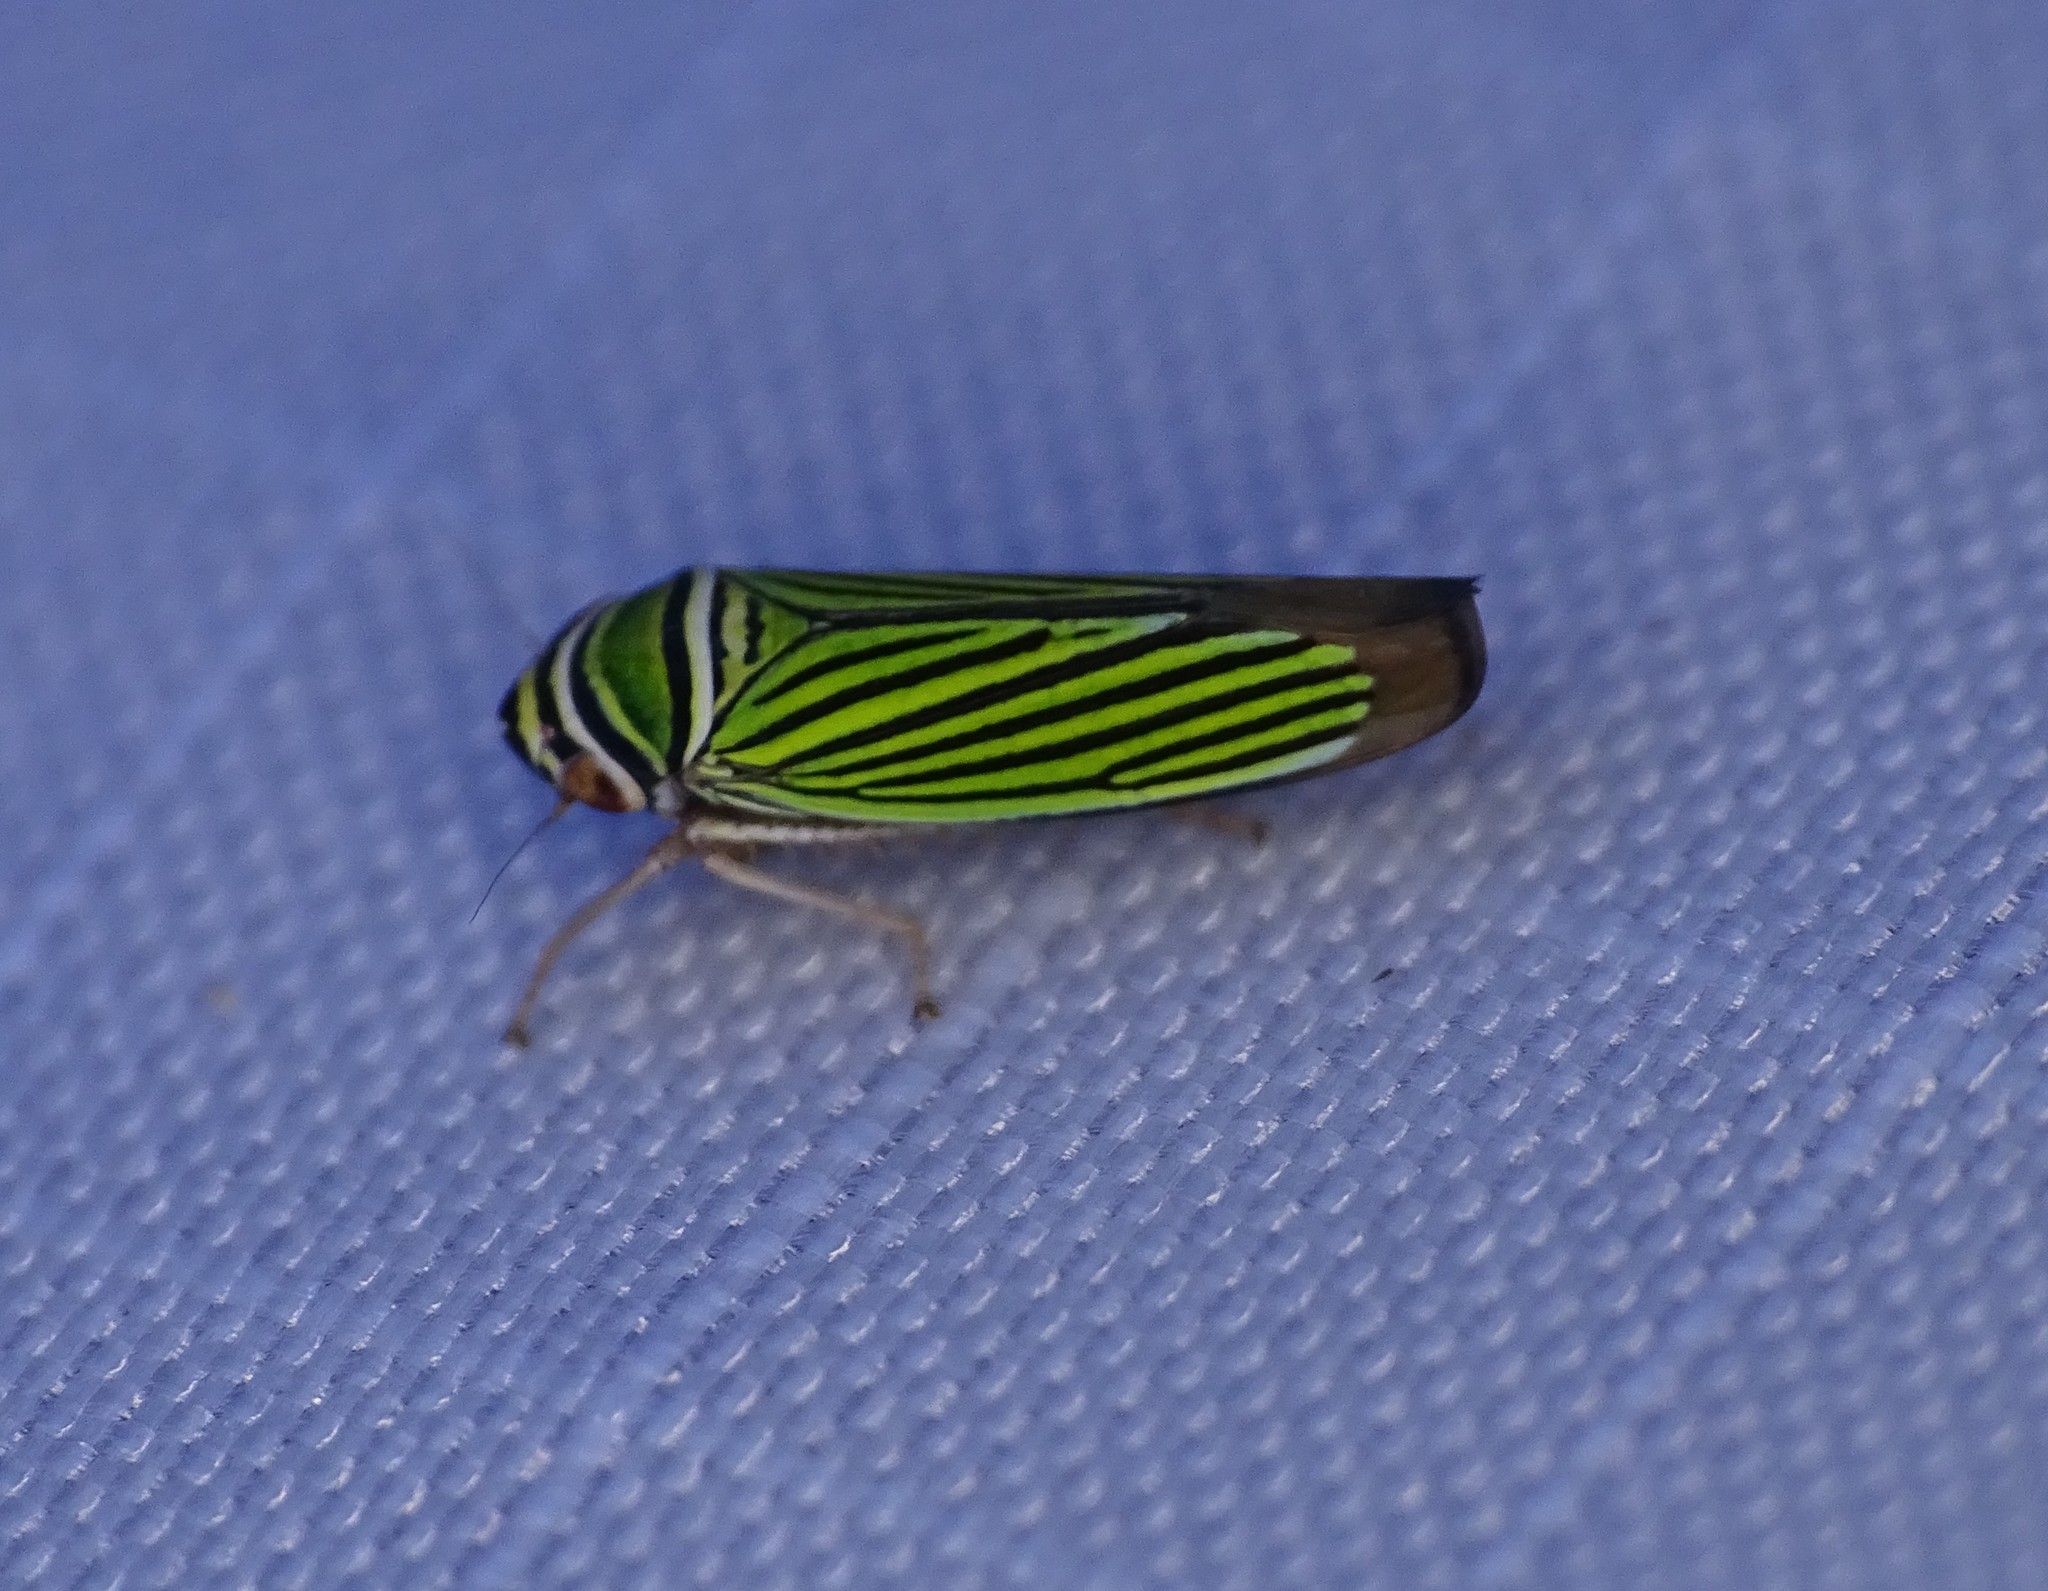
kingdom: Animalia
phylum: Arthropoda
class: Insecta
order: Hemiptera
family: Cicadellidae
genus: Tylozygus
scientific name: Tylozygus bifidus
